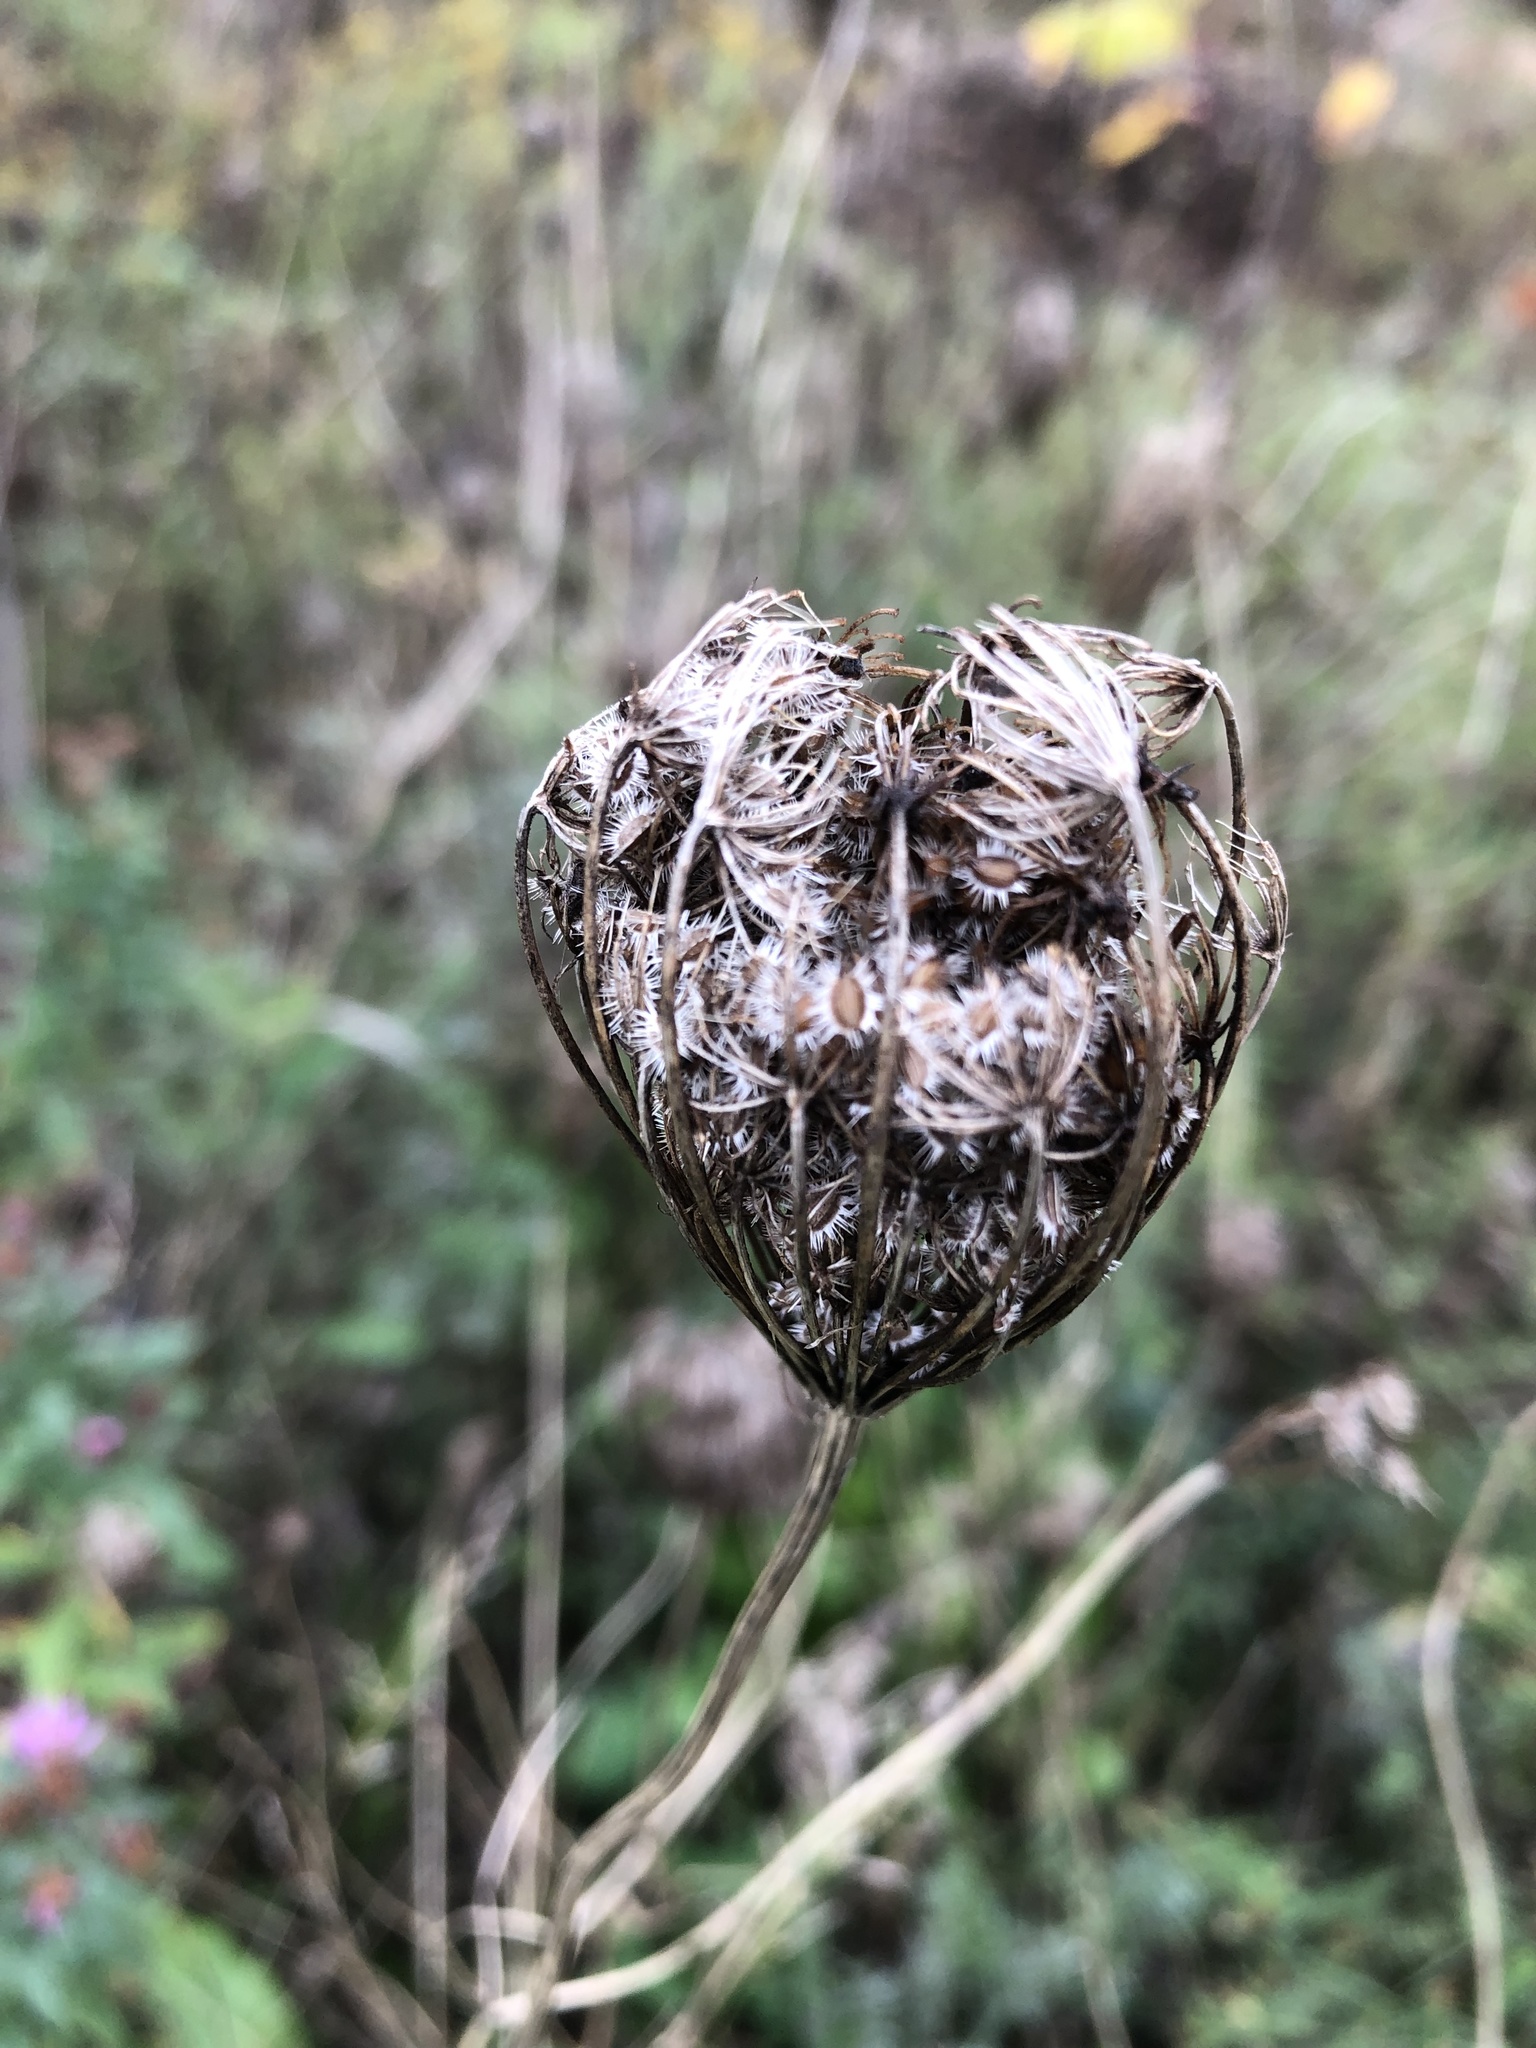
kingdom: Plantae
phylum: Tracheophyta
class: Magnoliopsida
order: Apiales
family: Apiaceae
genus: Daucus
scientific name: Daucus carota
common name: Wild carrot
